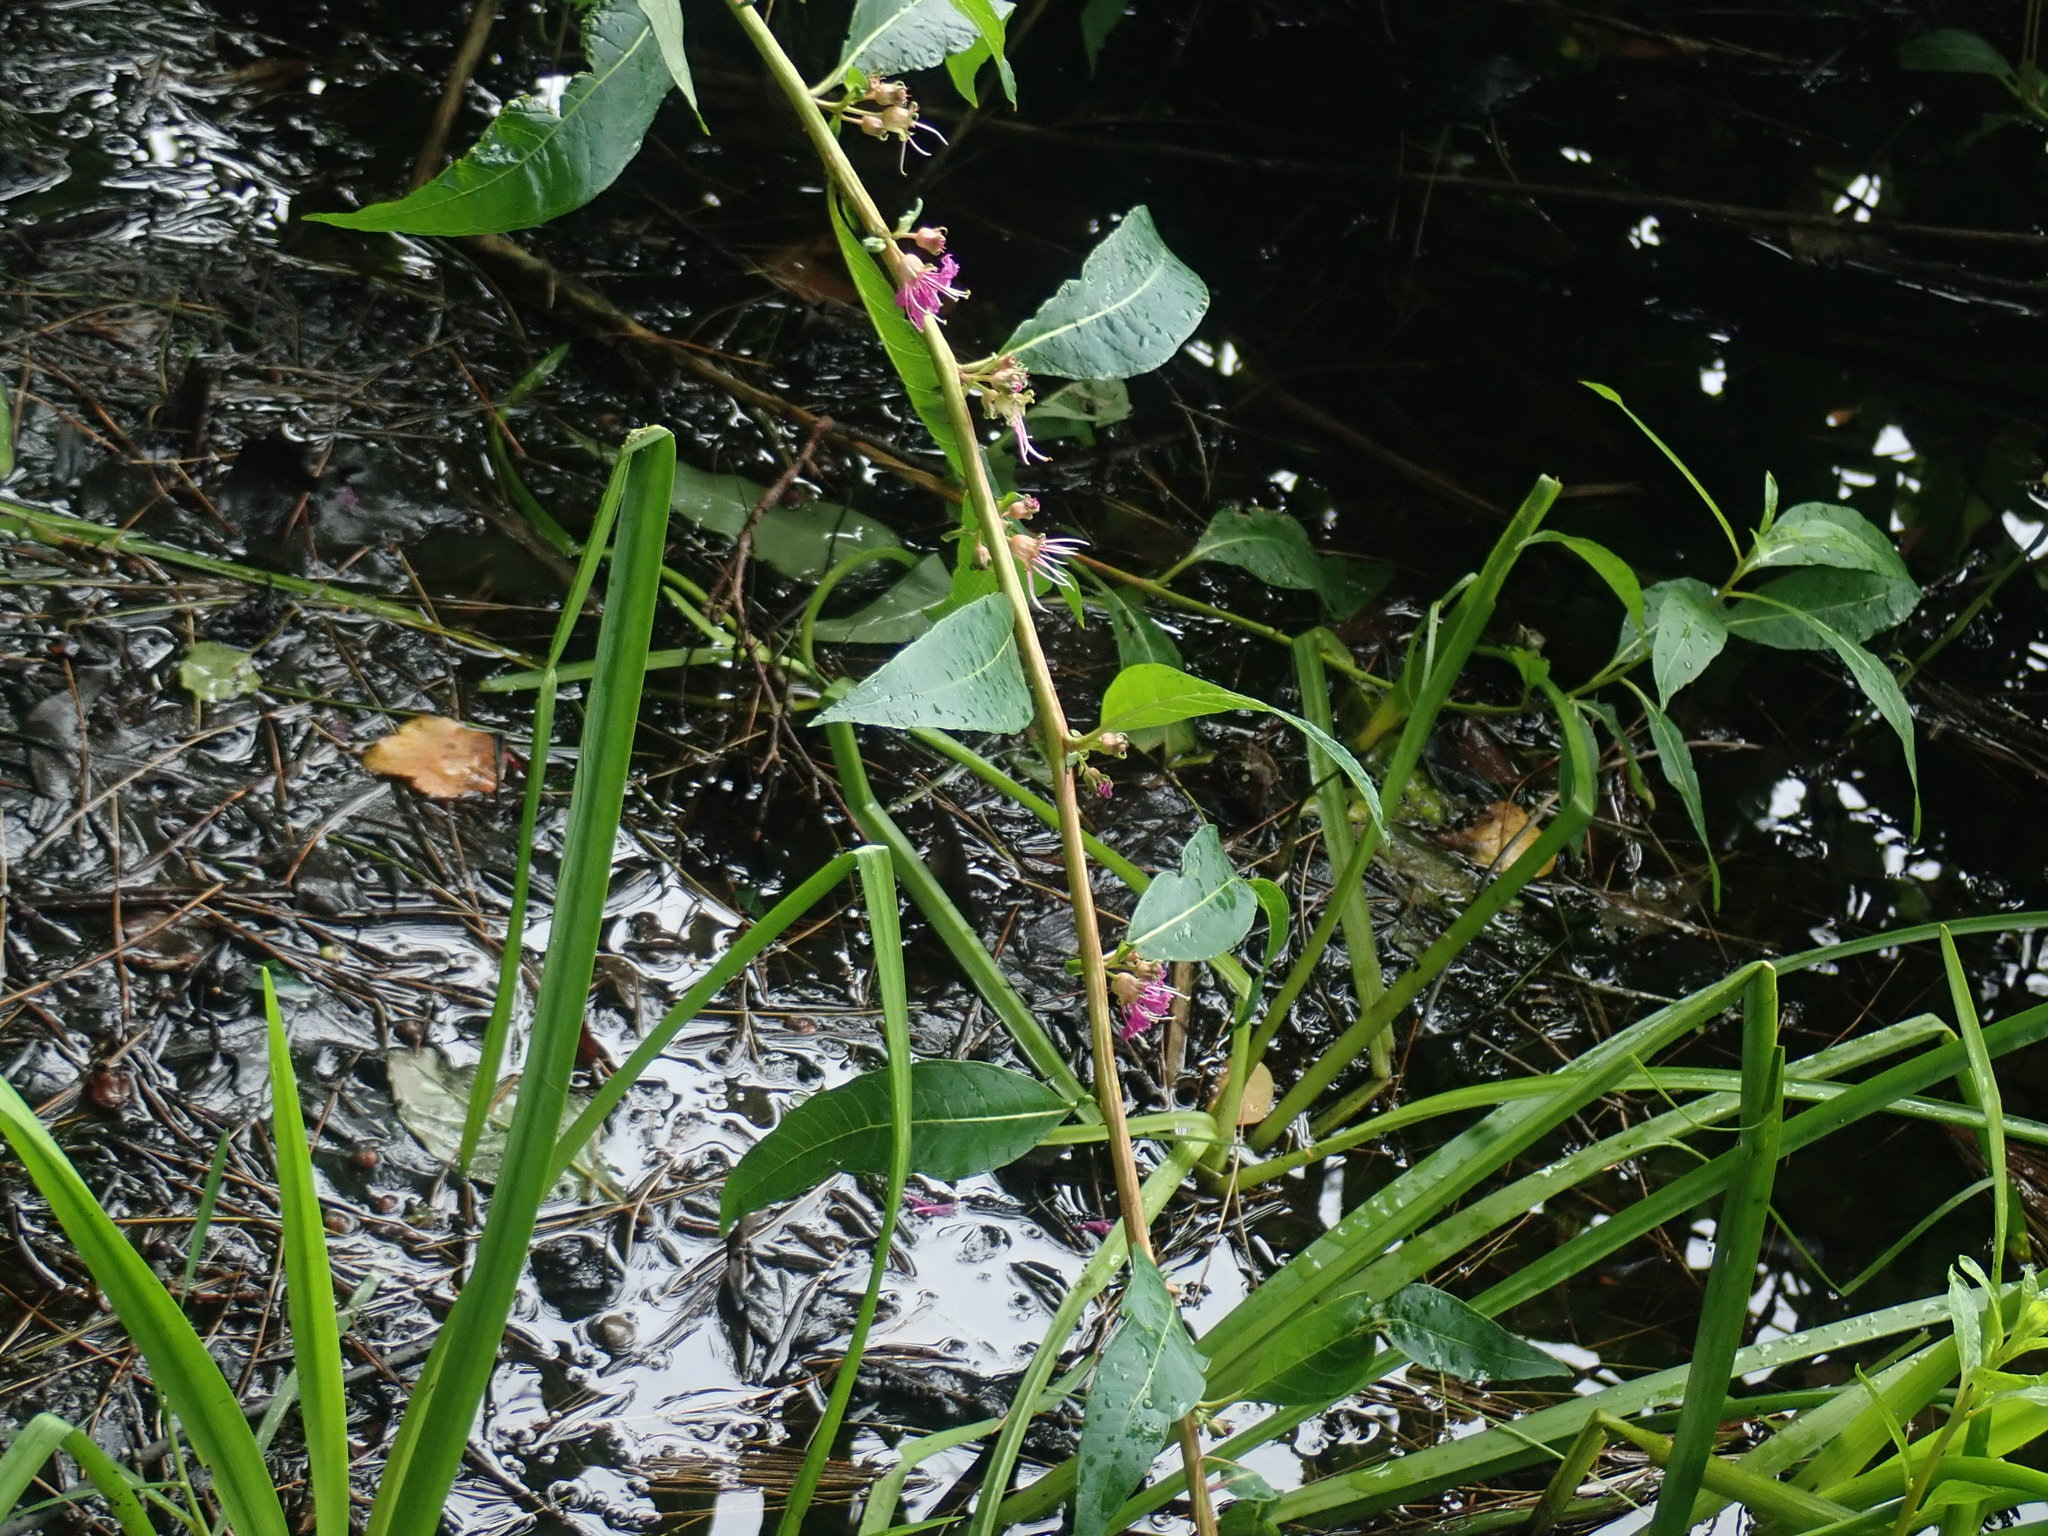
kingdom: Plantae
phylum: Tracheophyta
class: Magnoliopsida
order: Myrtales
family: Lythraceae
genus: Decodon
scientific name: Decodon verticillatus
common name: Hairy swamp loosestrife
